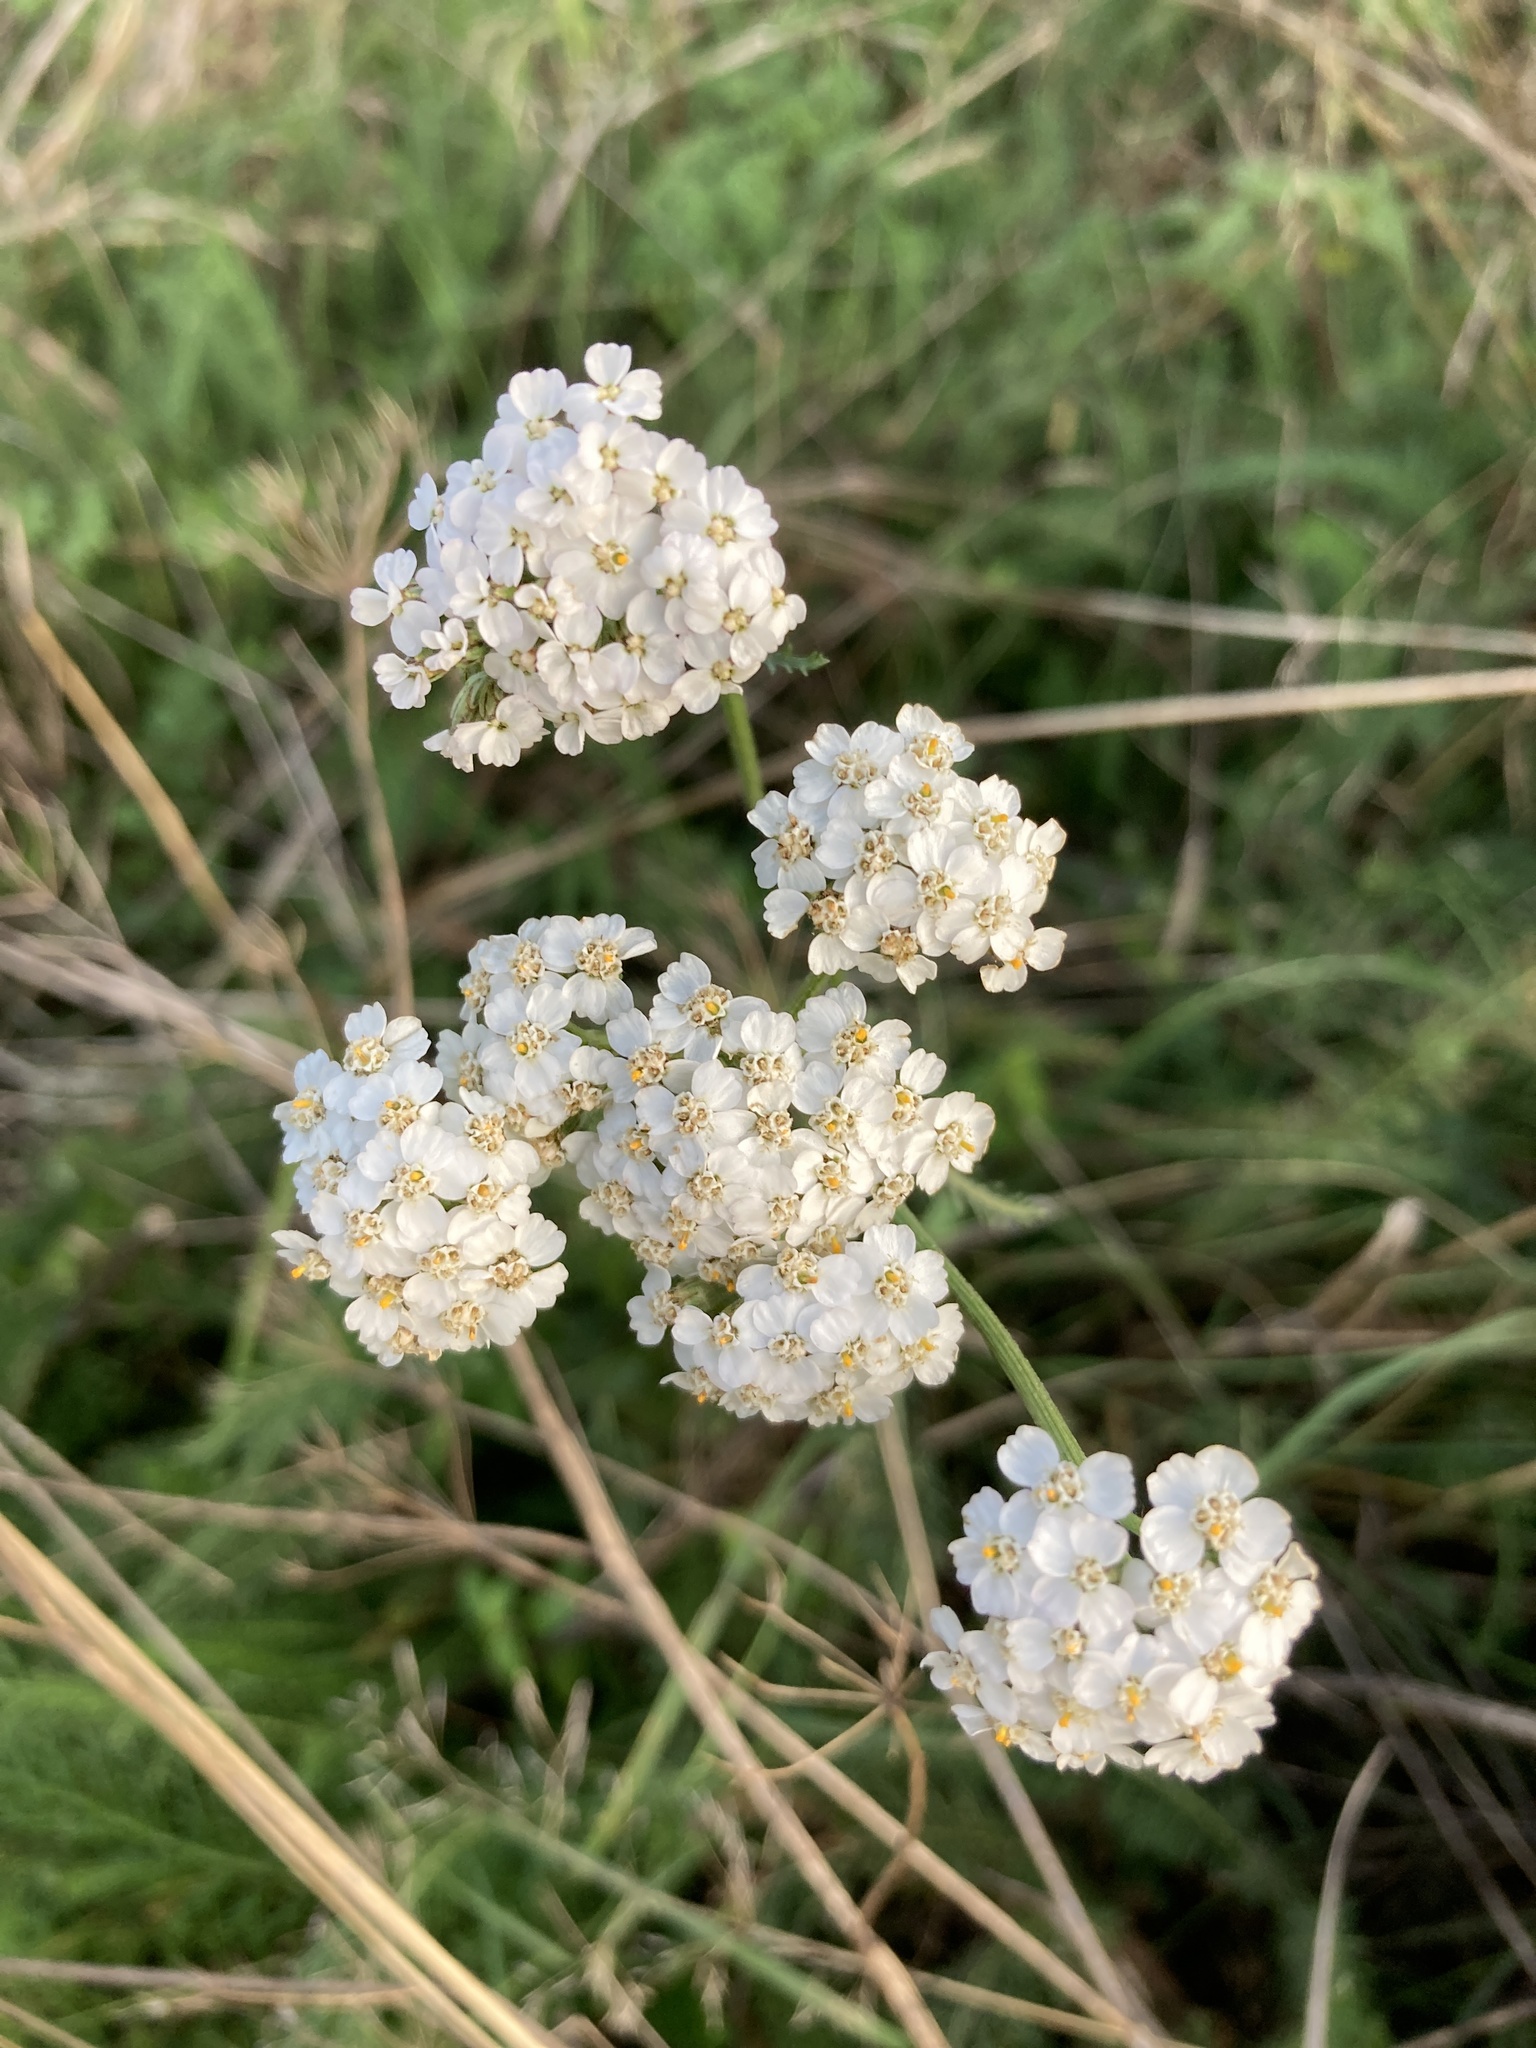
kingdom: Plantae
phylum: Tracheophyta
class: Magnoliopsida
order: Asterales
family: Asteraceae
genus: Achillea
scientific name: Achillea millefolium
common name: Yarrow
